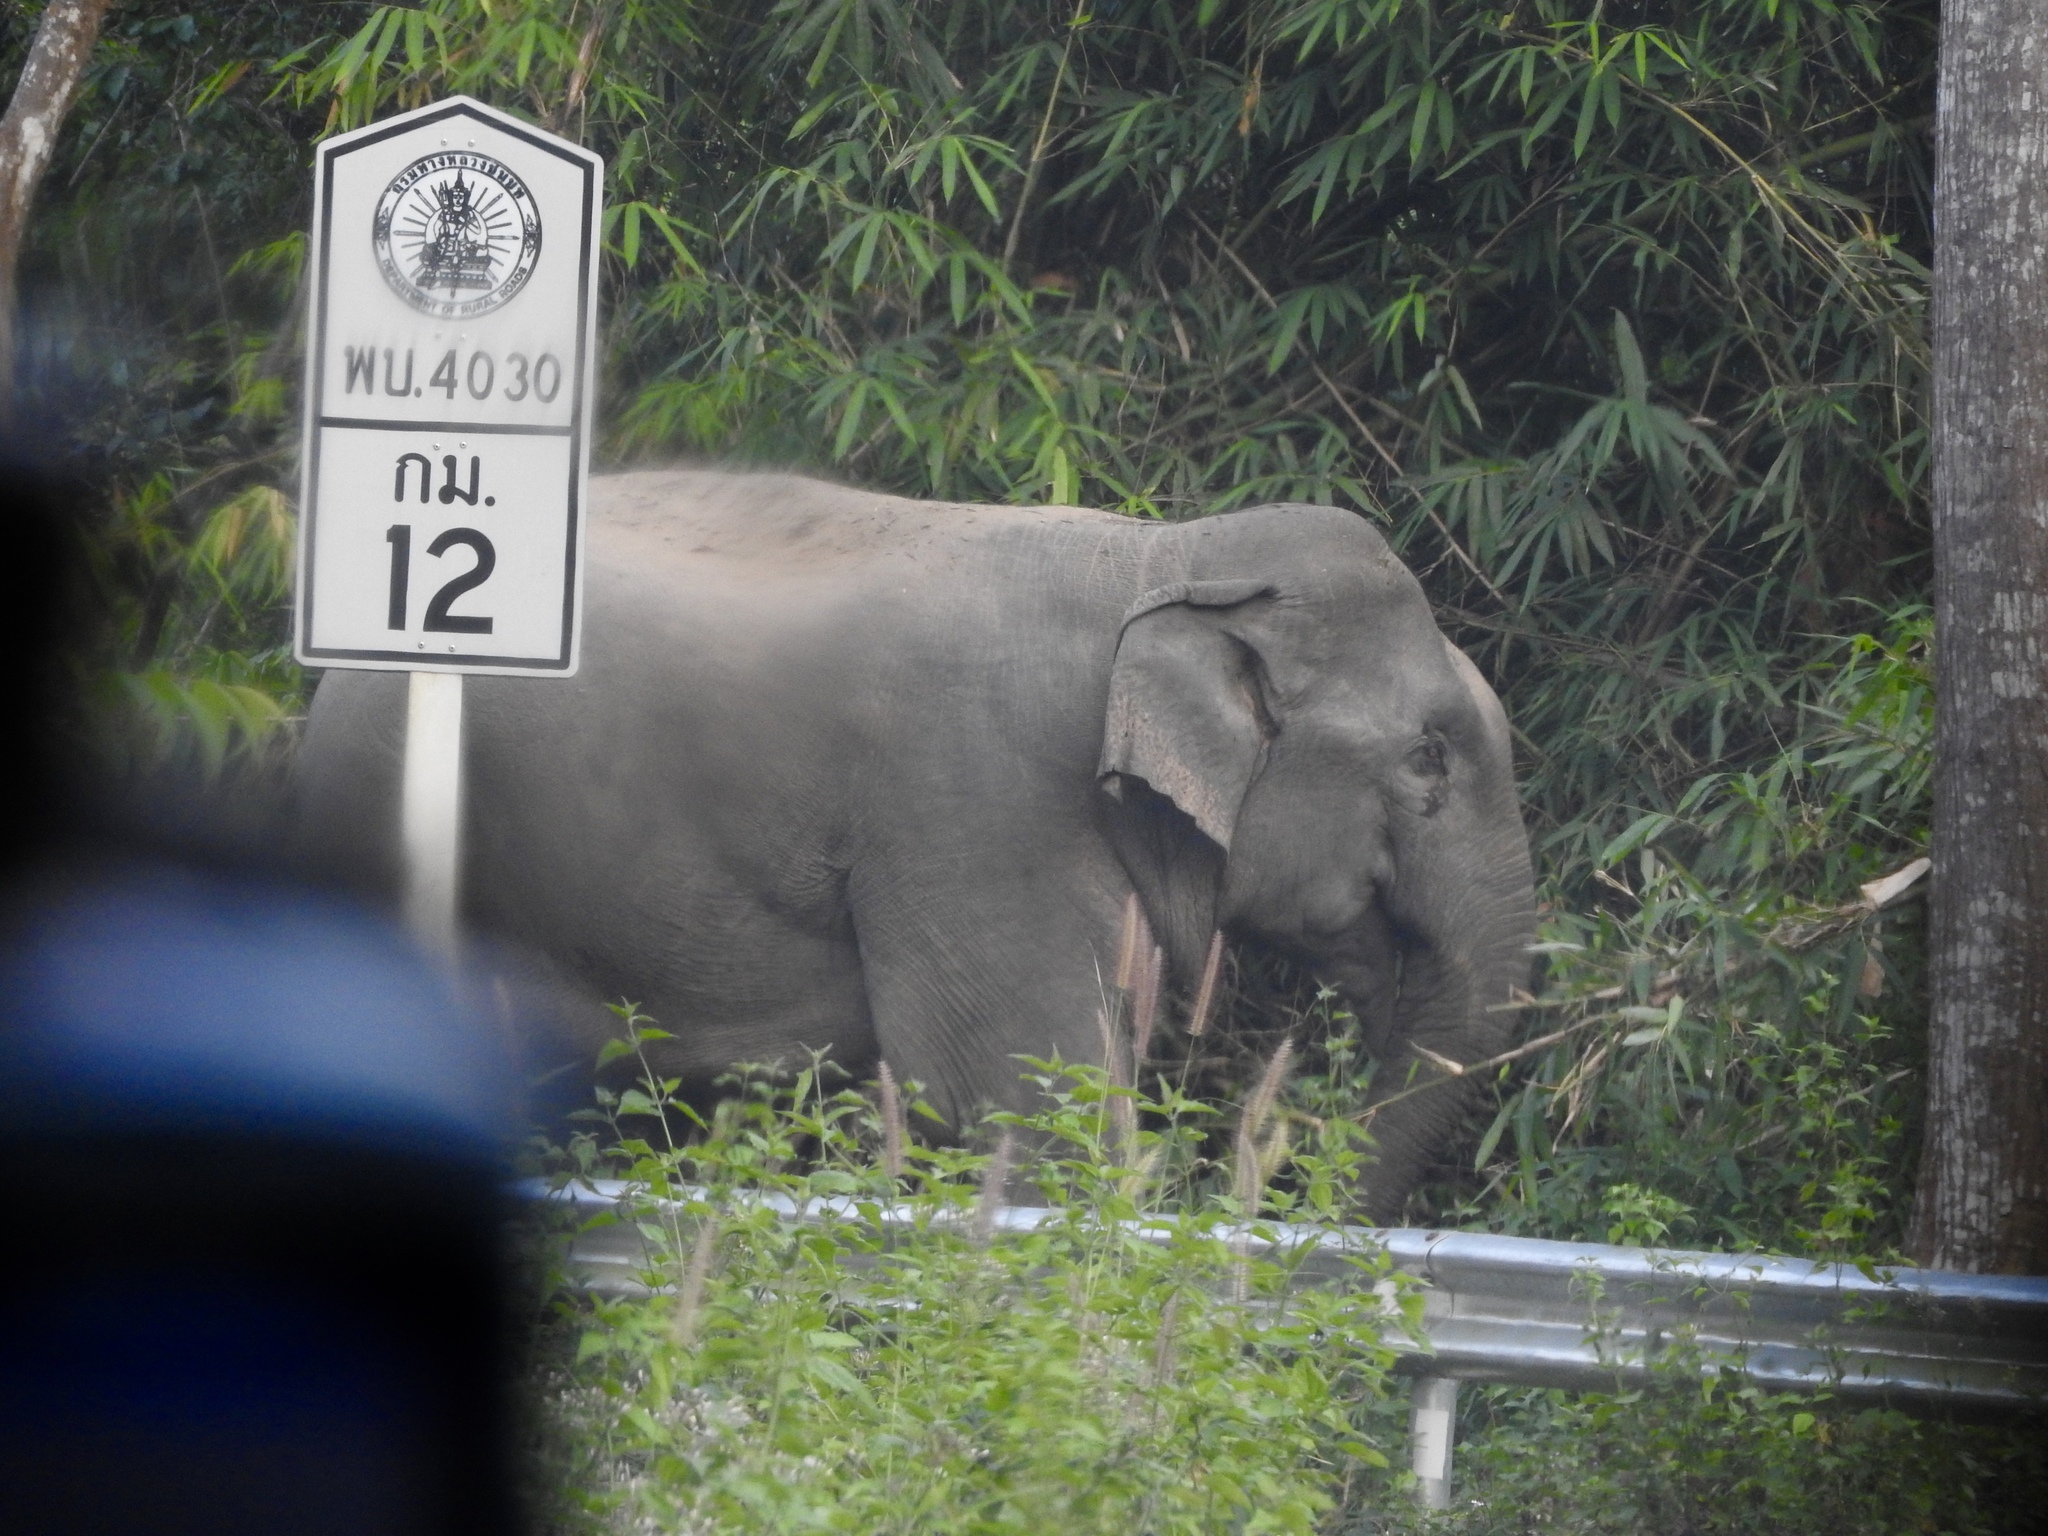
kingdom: Animalia
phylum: Chordata
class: Mammalia
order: Proboscidea
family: Elephantidae
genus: Elephas
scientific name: Elephas maximus
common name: Asian elephant
